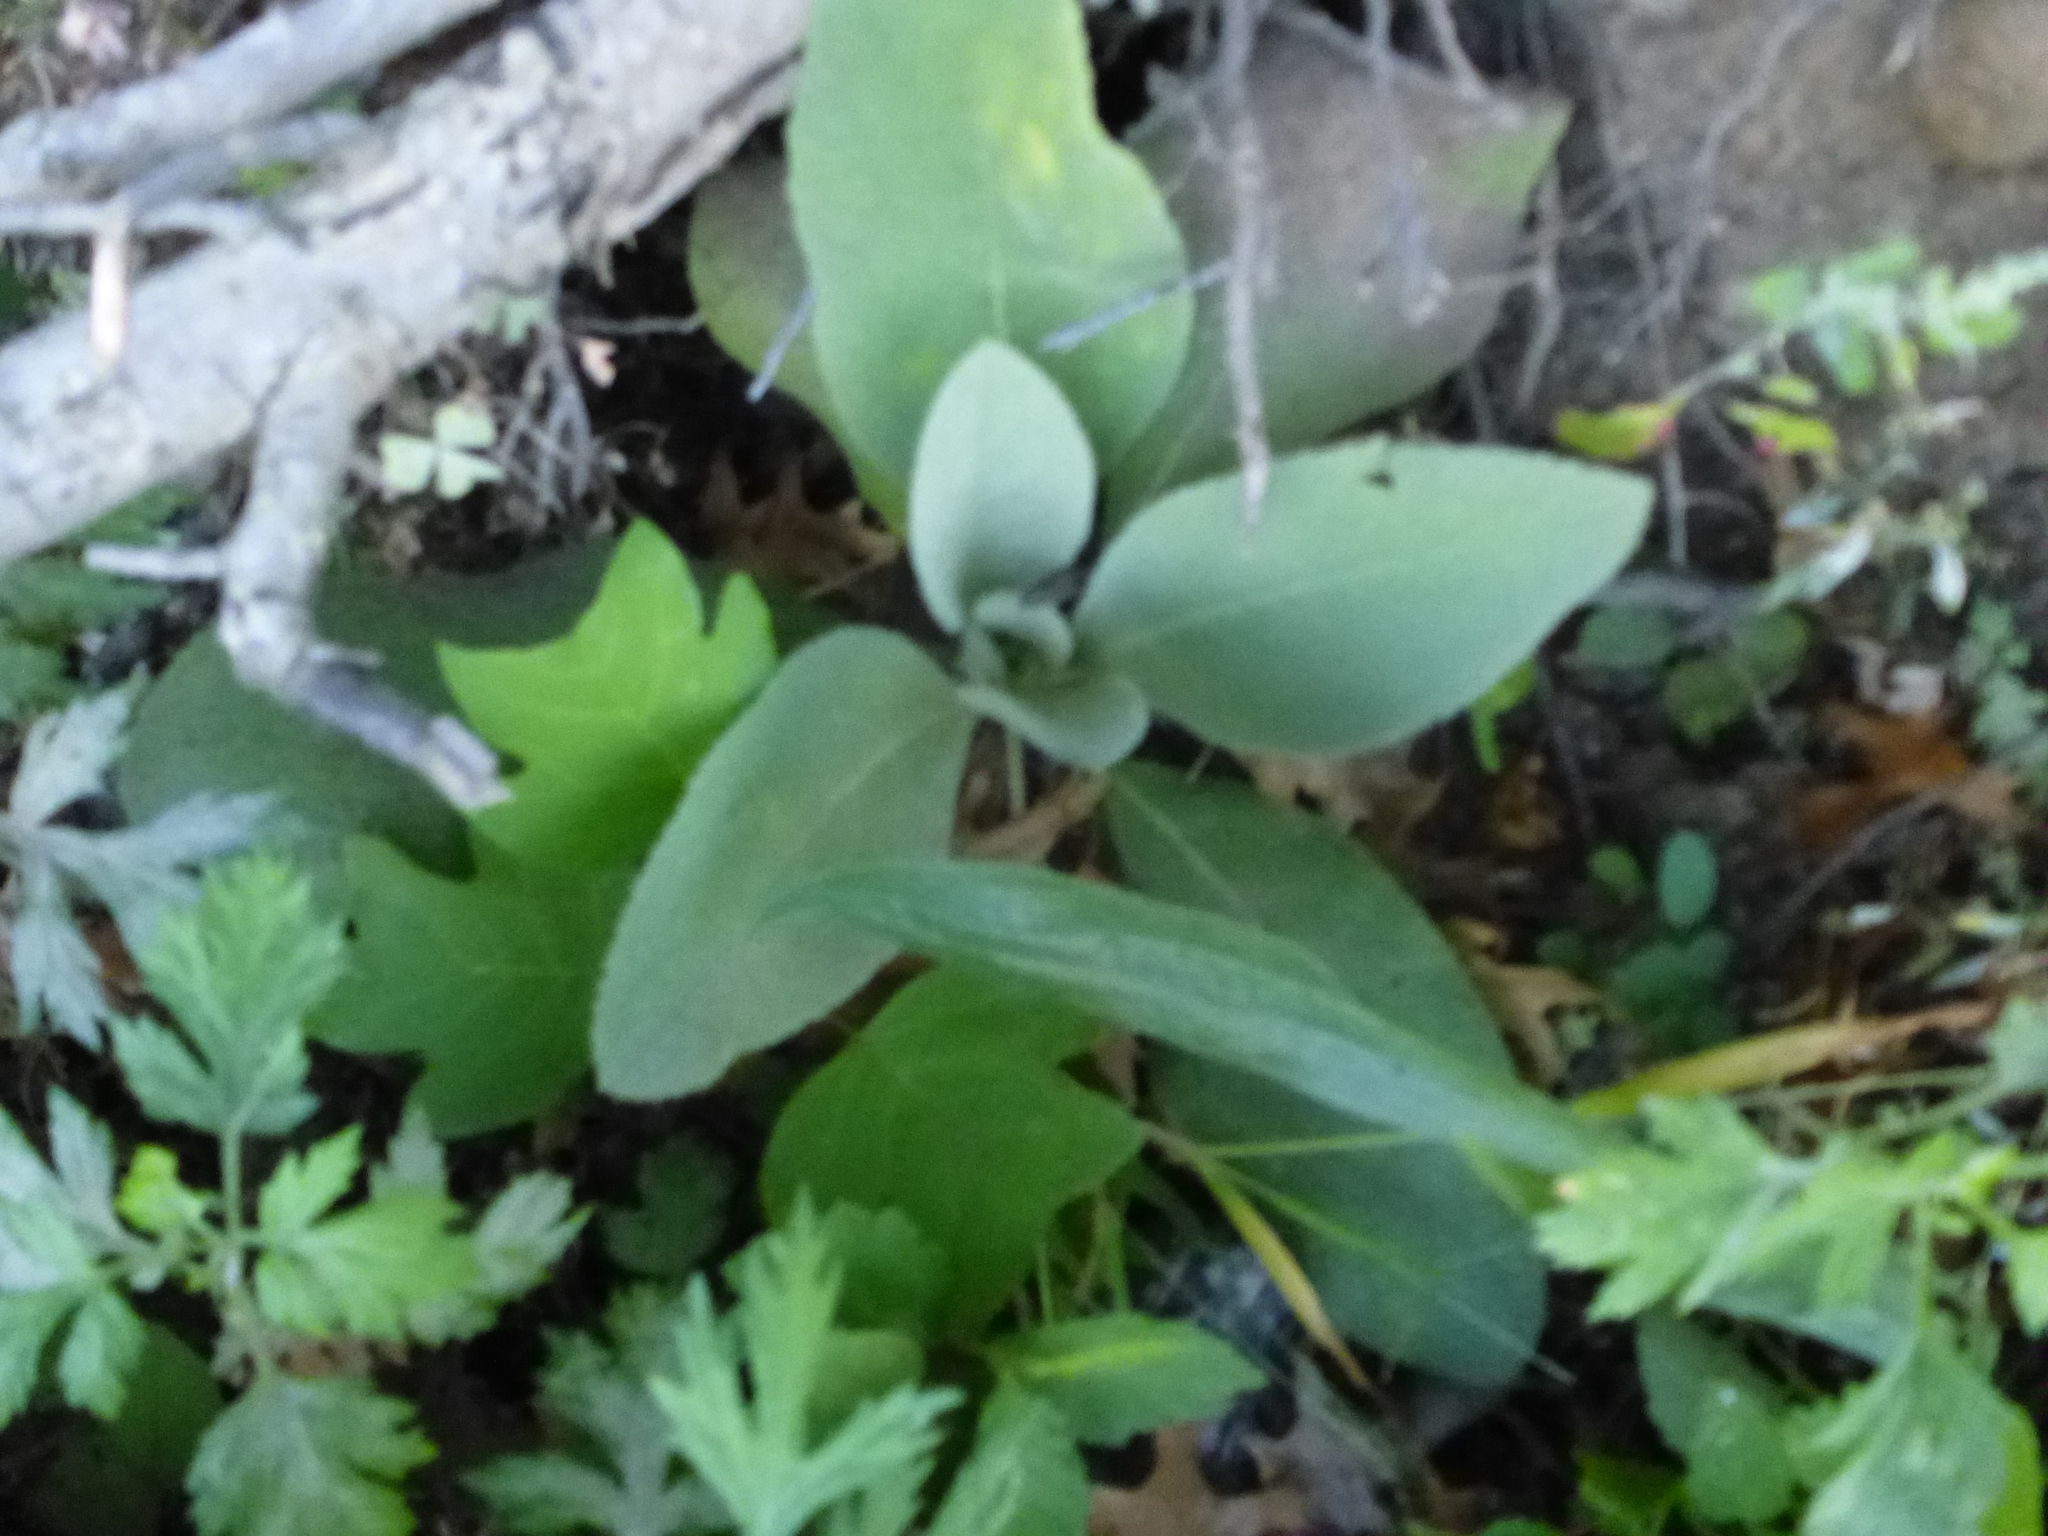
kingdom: Plantae
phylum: Tracheophyta
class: Magnoliopsida
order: Lamiales
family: Scrophulariaceae
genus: Verbascum
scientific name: Verbascum thapsus
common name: Common mullein
